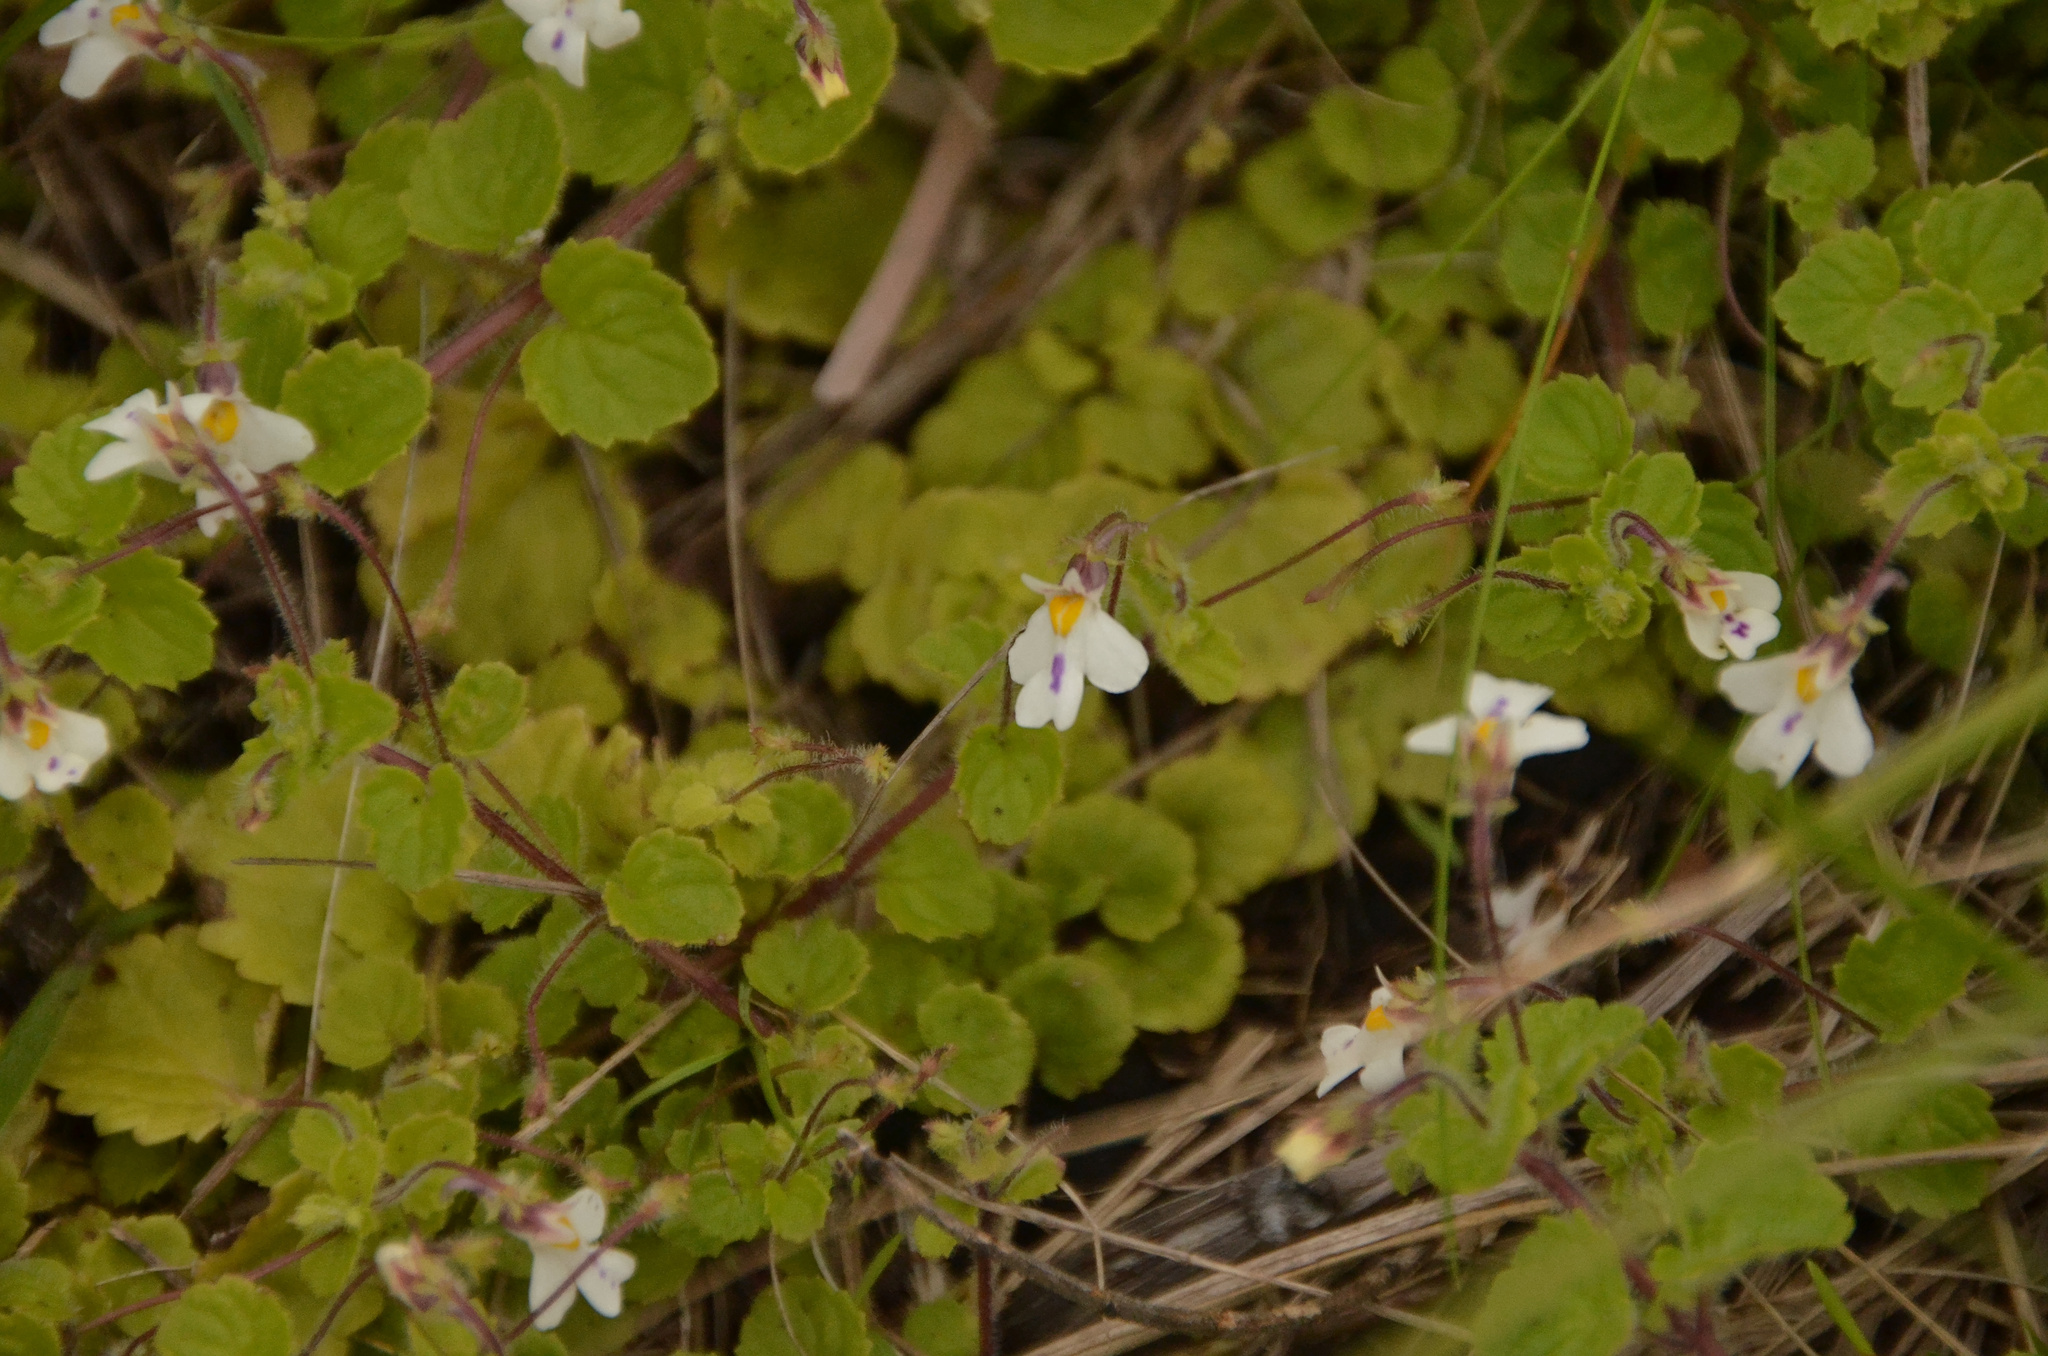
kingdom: Plantae
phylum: Tracheophyta
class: Magnoliopsida
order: Lamiales
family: Scrophulariaceae
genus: Diclis
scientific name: Diclis reptans
